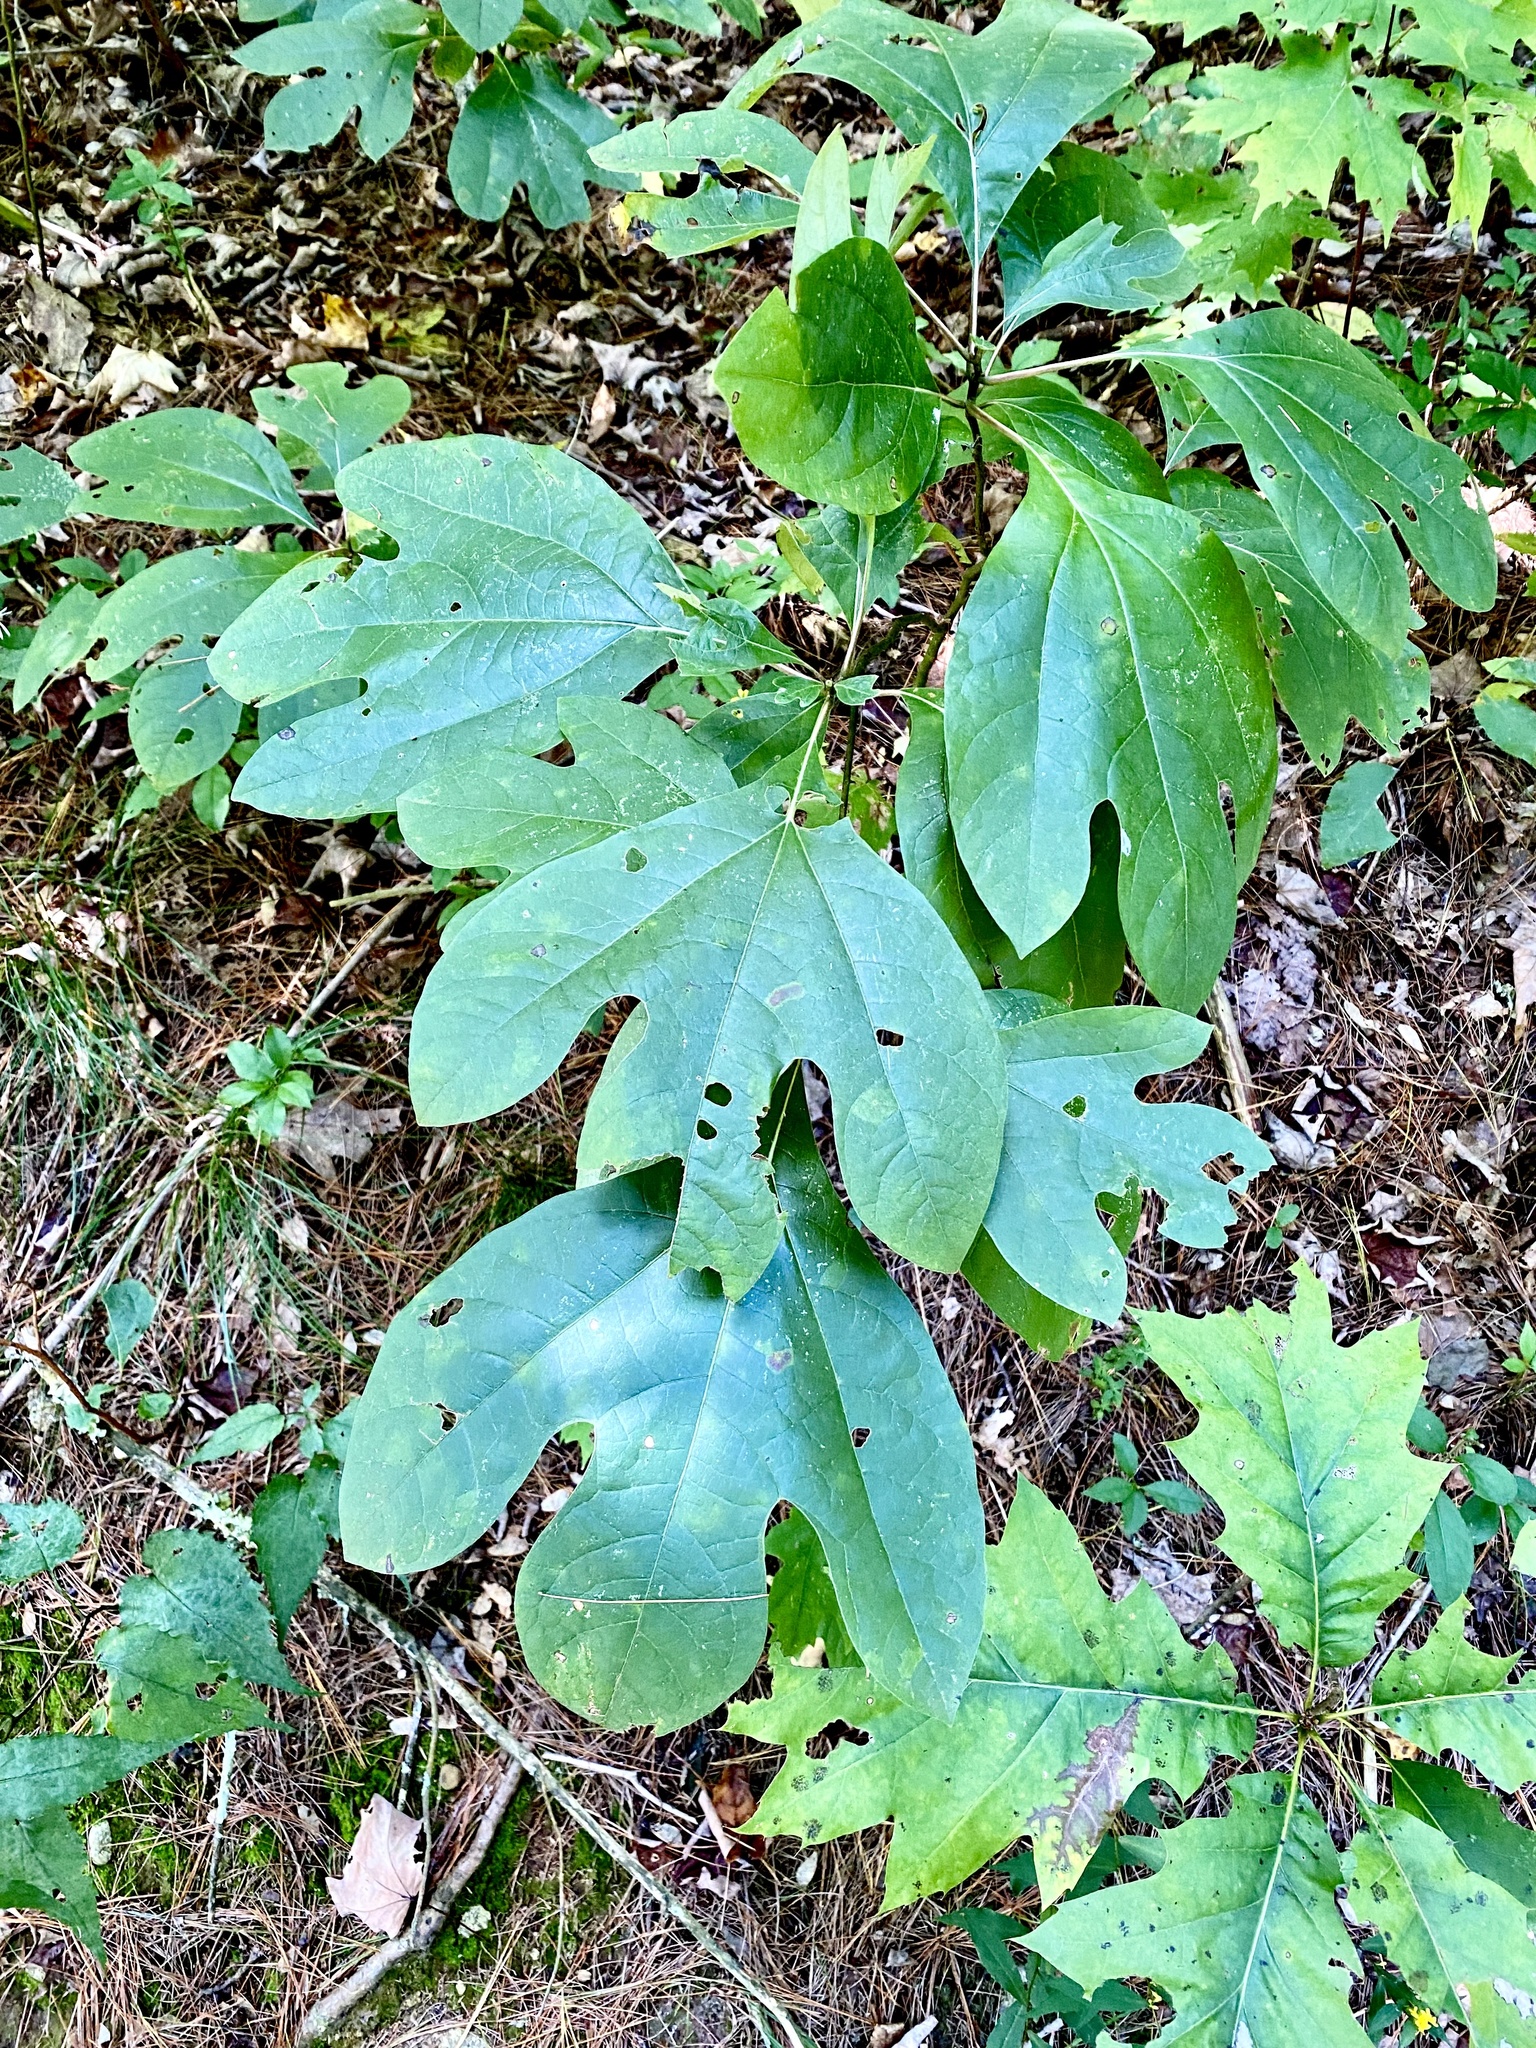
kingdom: Plantae
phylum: Tracheophyta
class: Magnoliopsida
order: Laurales
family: Lauraceae
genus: Sassafras
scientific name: Sassafras albidum
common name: Sassafras
